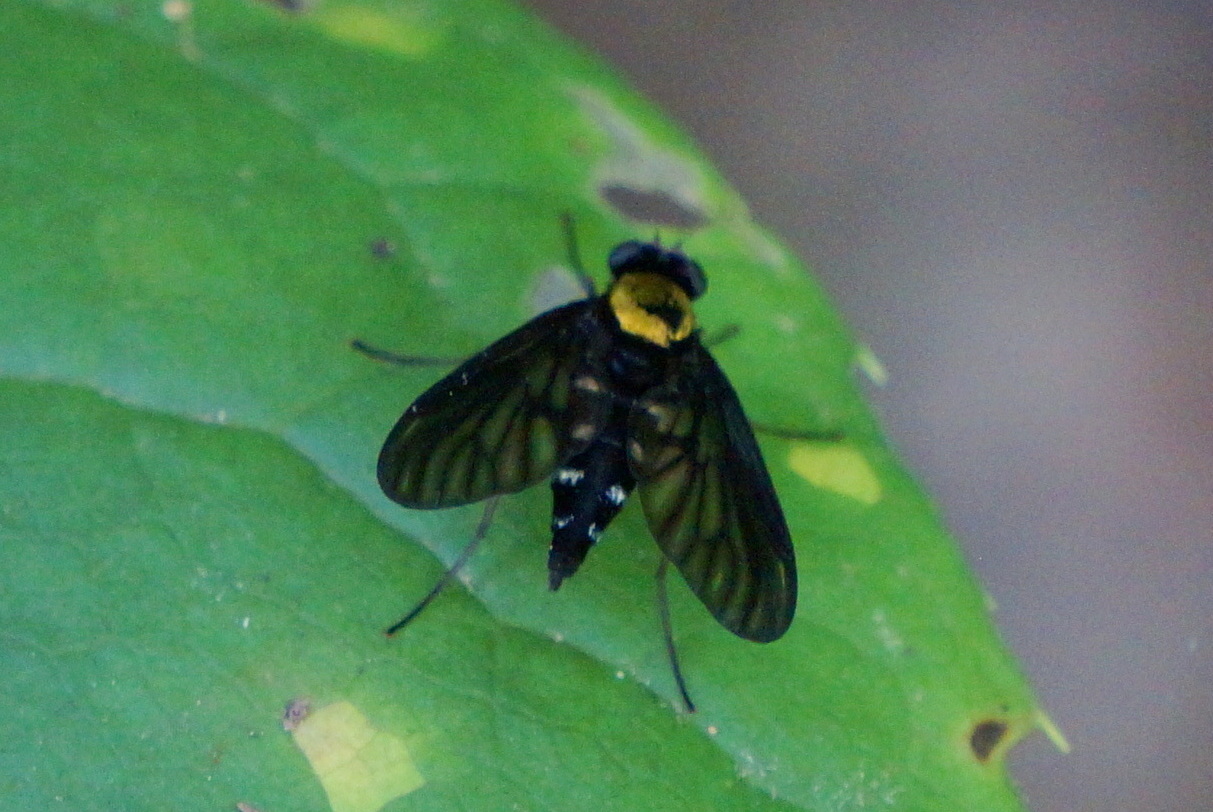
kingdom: Animalia
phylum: Arthropoda
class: Insecta
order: Diptera
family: Rhagionidae
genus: Chrysopilus
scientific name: Chrysopilus thoracicus
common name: Golden-backed snipe fly
